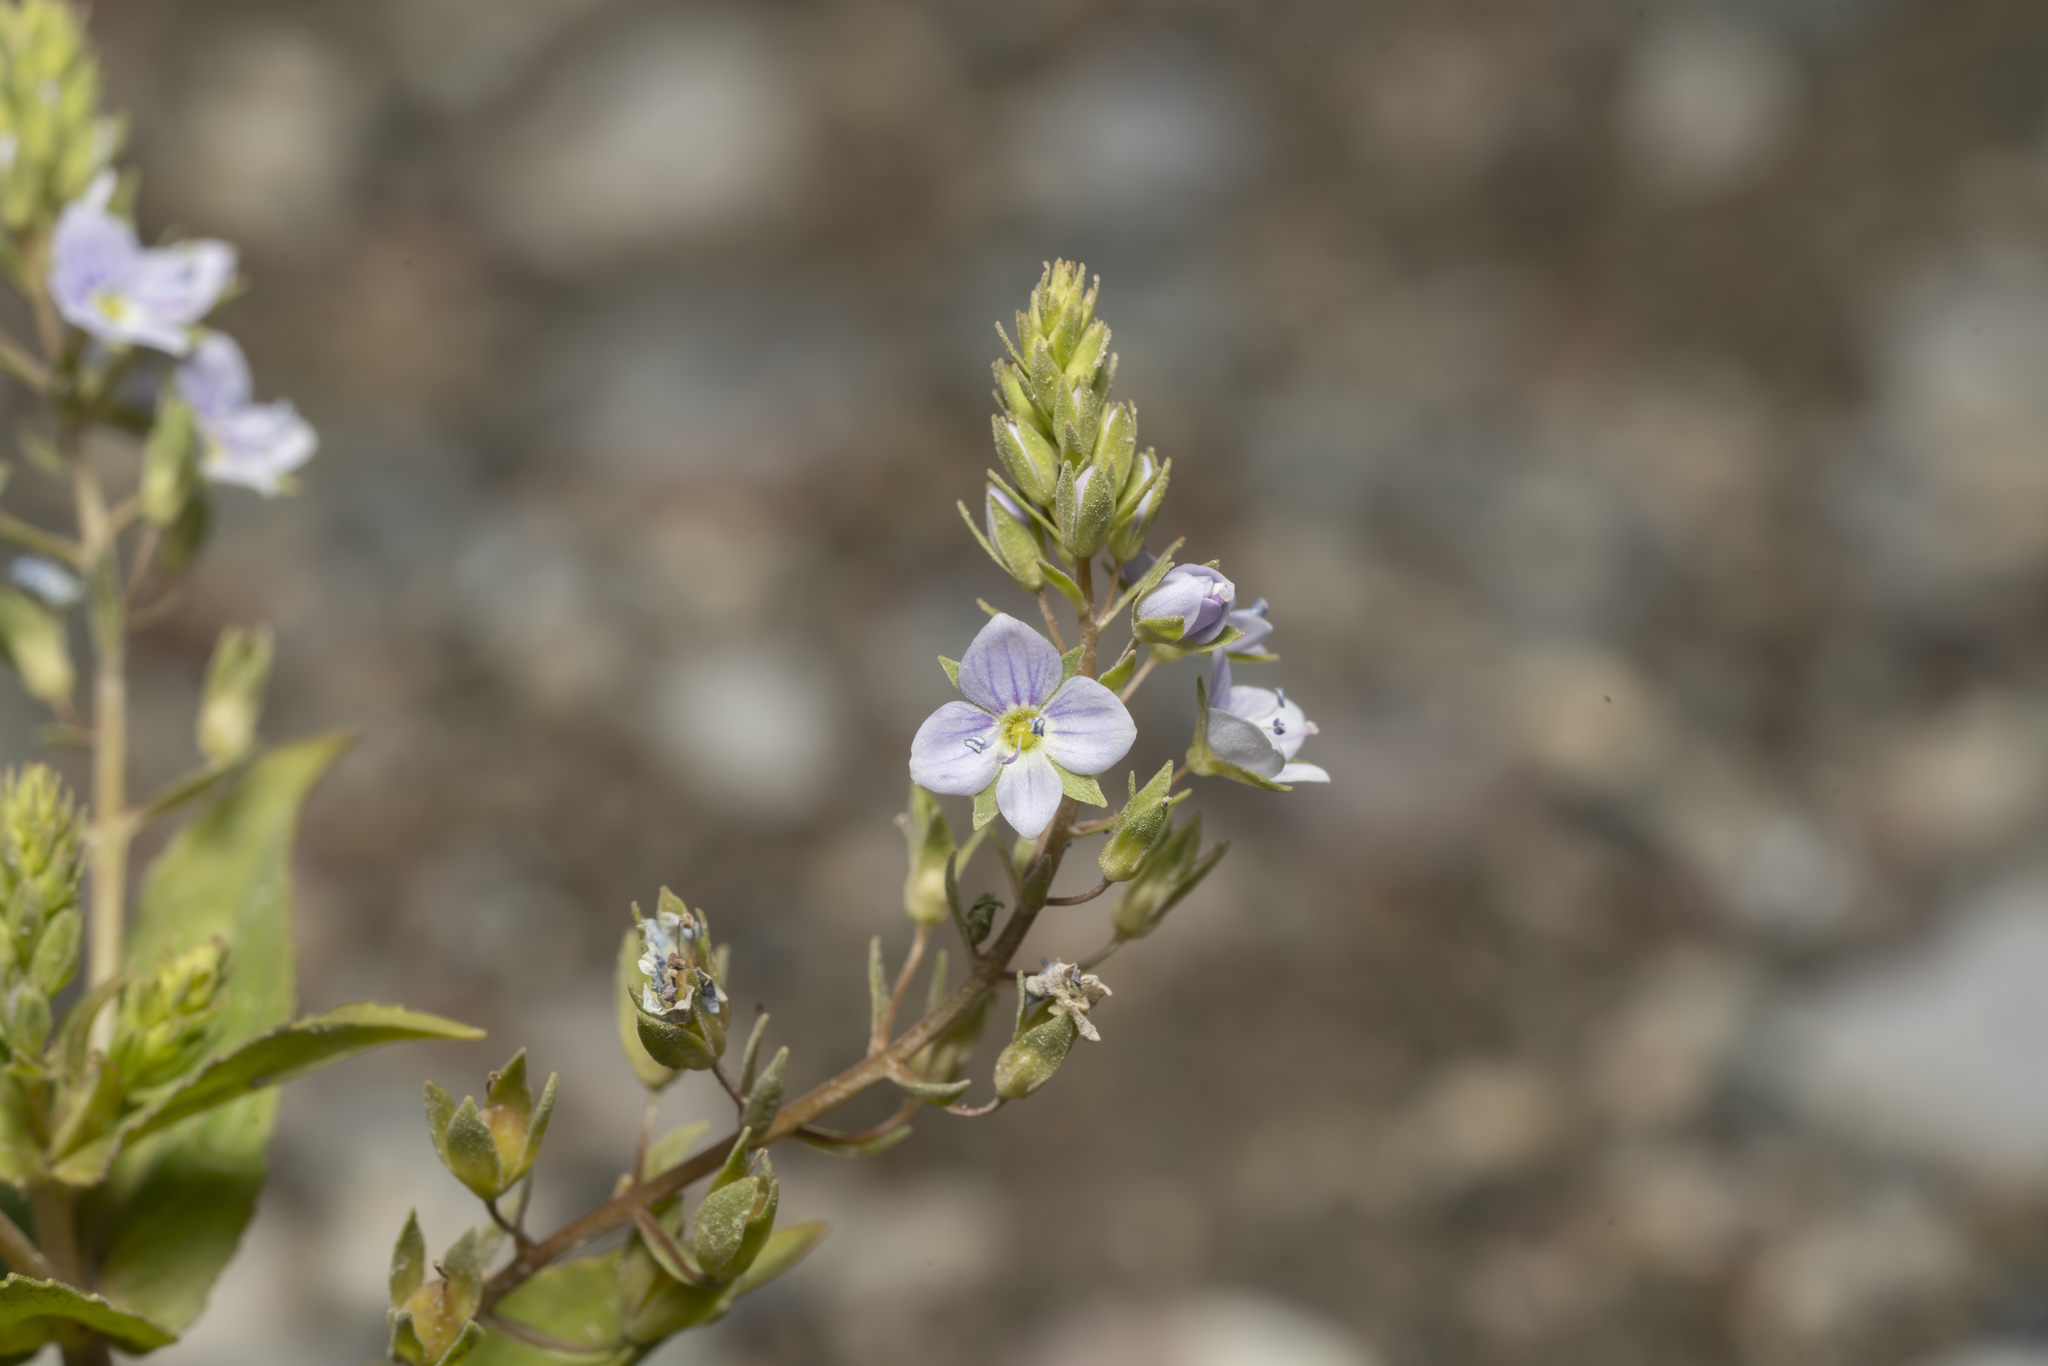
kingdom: Plantae
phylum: Tracheophyta
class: Magnoliopsida
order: Lamiales
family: Plantaginaceae
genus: Veronica
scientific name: Veronica anagallis-aquatica
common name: Water speedwell
